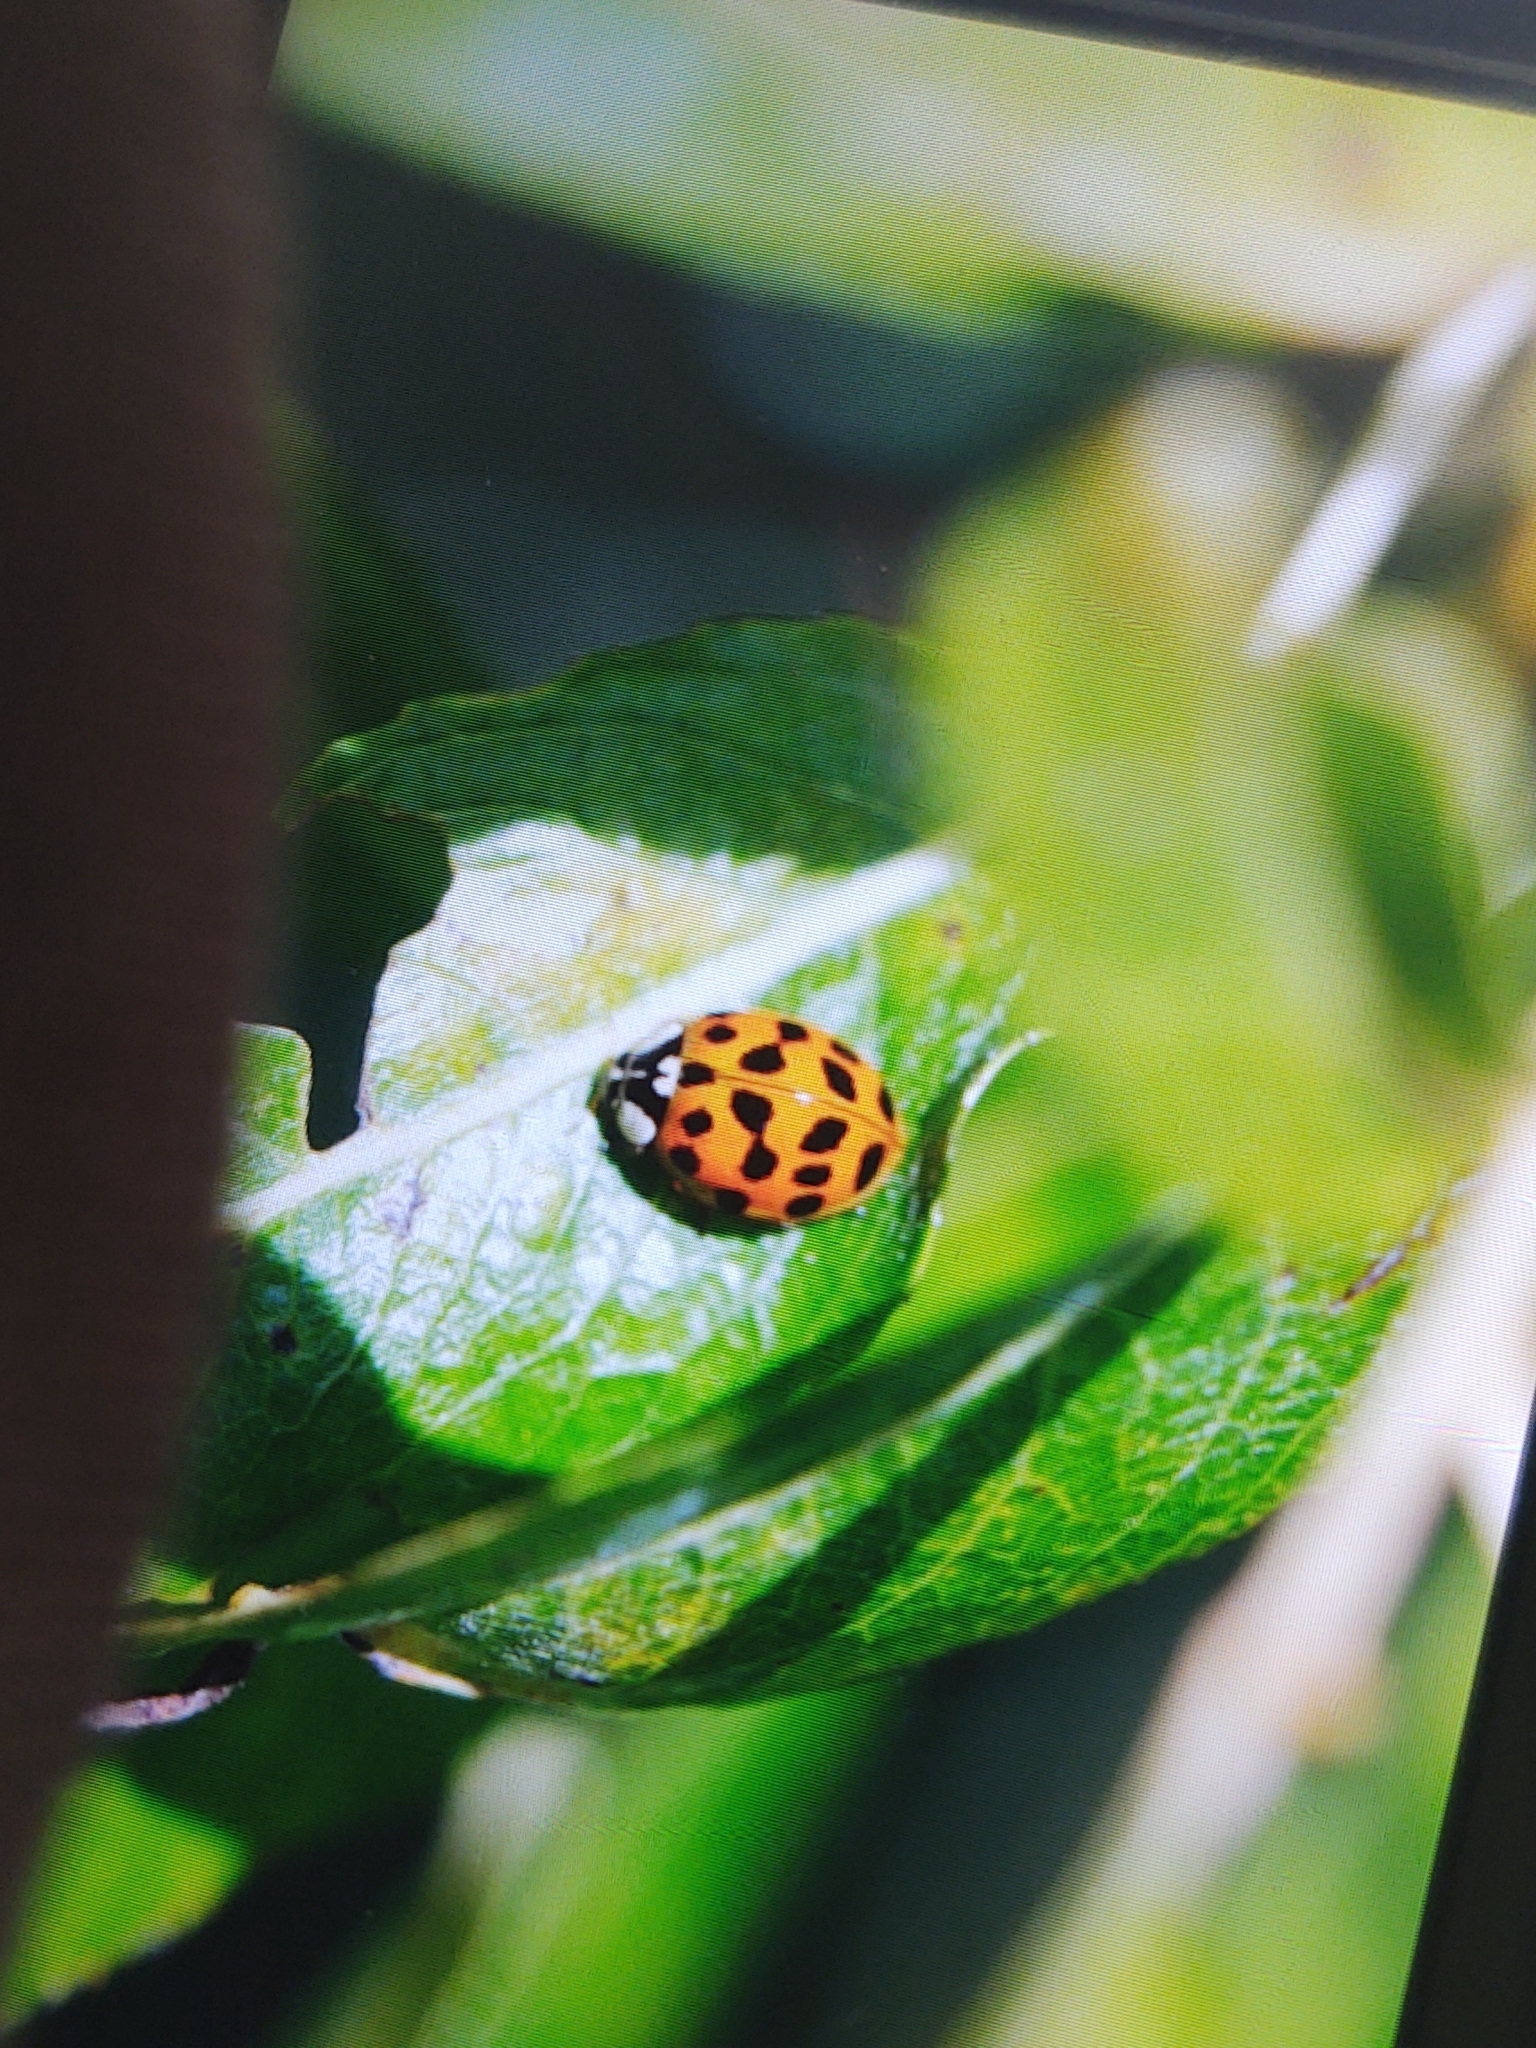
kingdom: Animalia
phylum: Arthropoda
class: Insecta
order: Coleoptera
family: Coccinellidae
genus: Harmonia
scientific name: Harmonia axyridis
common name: Harlequin ladybird
